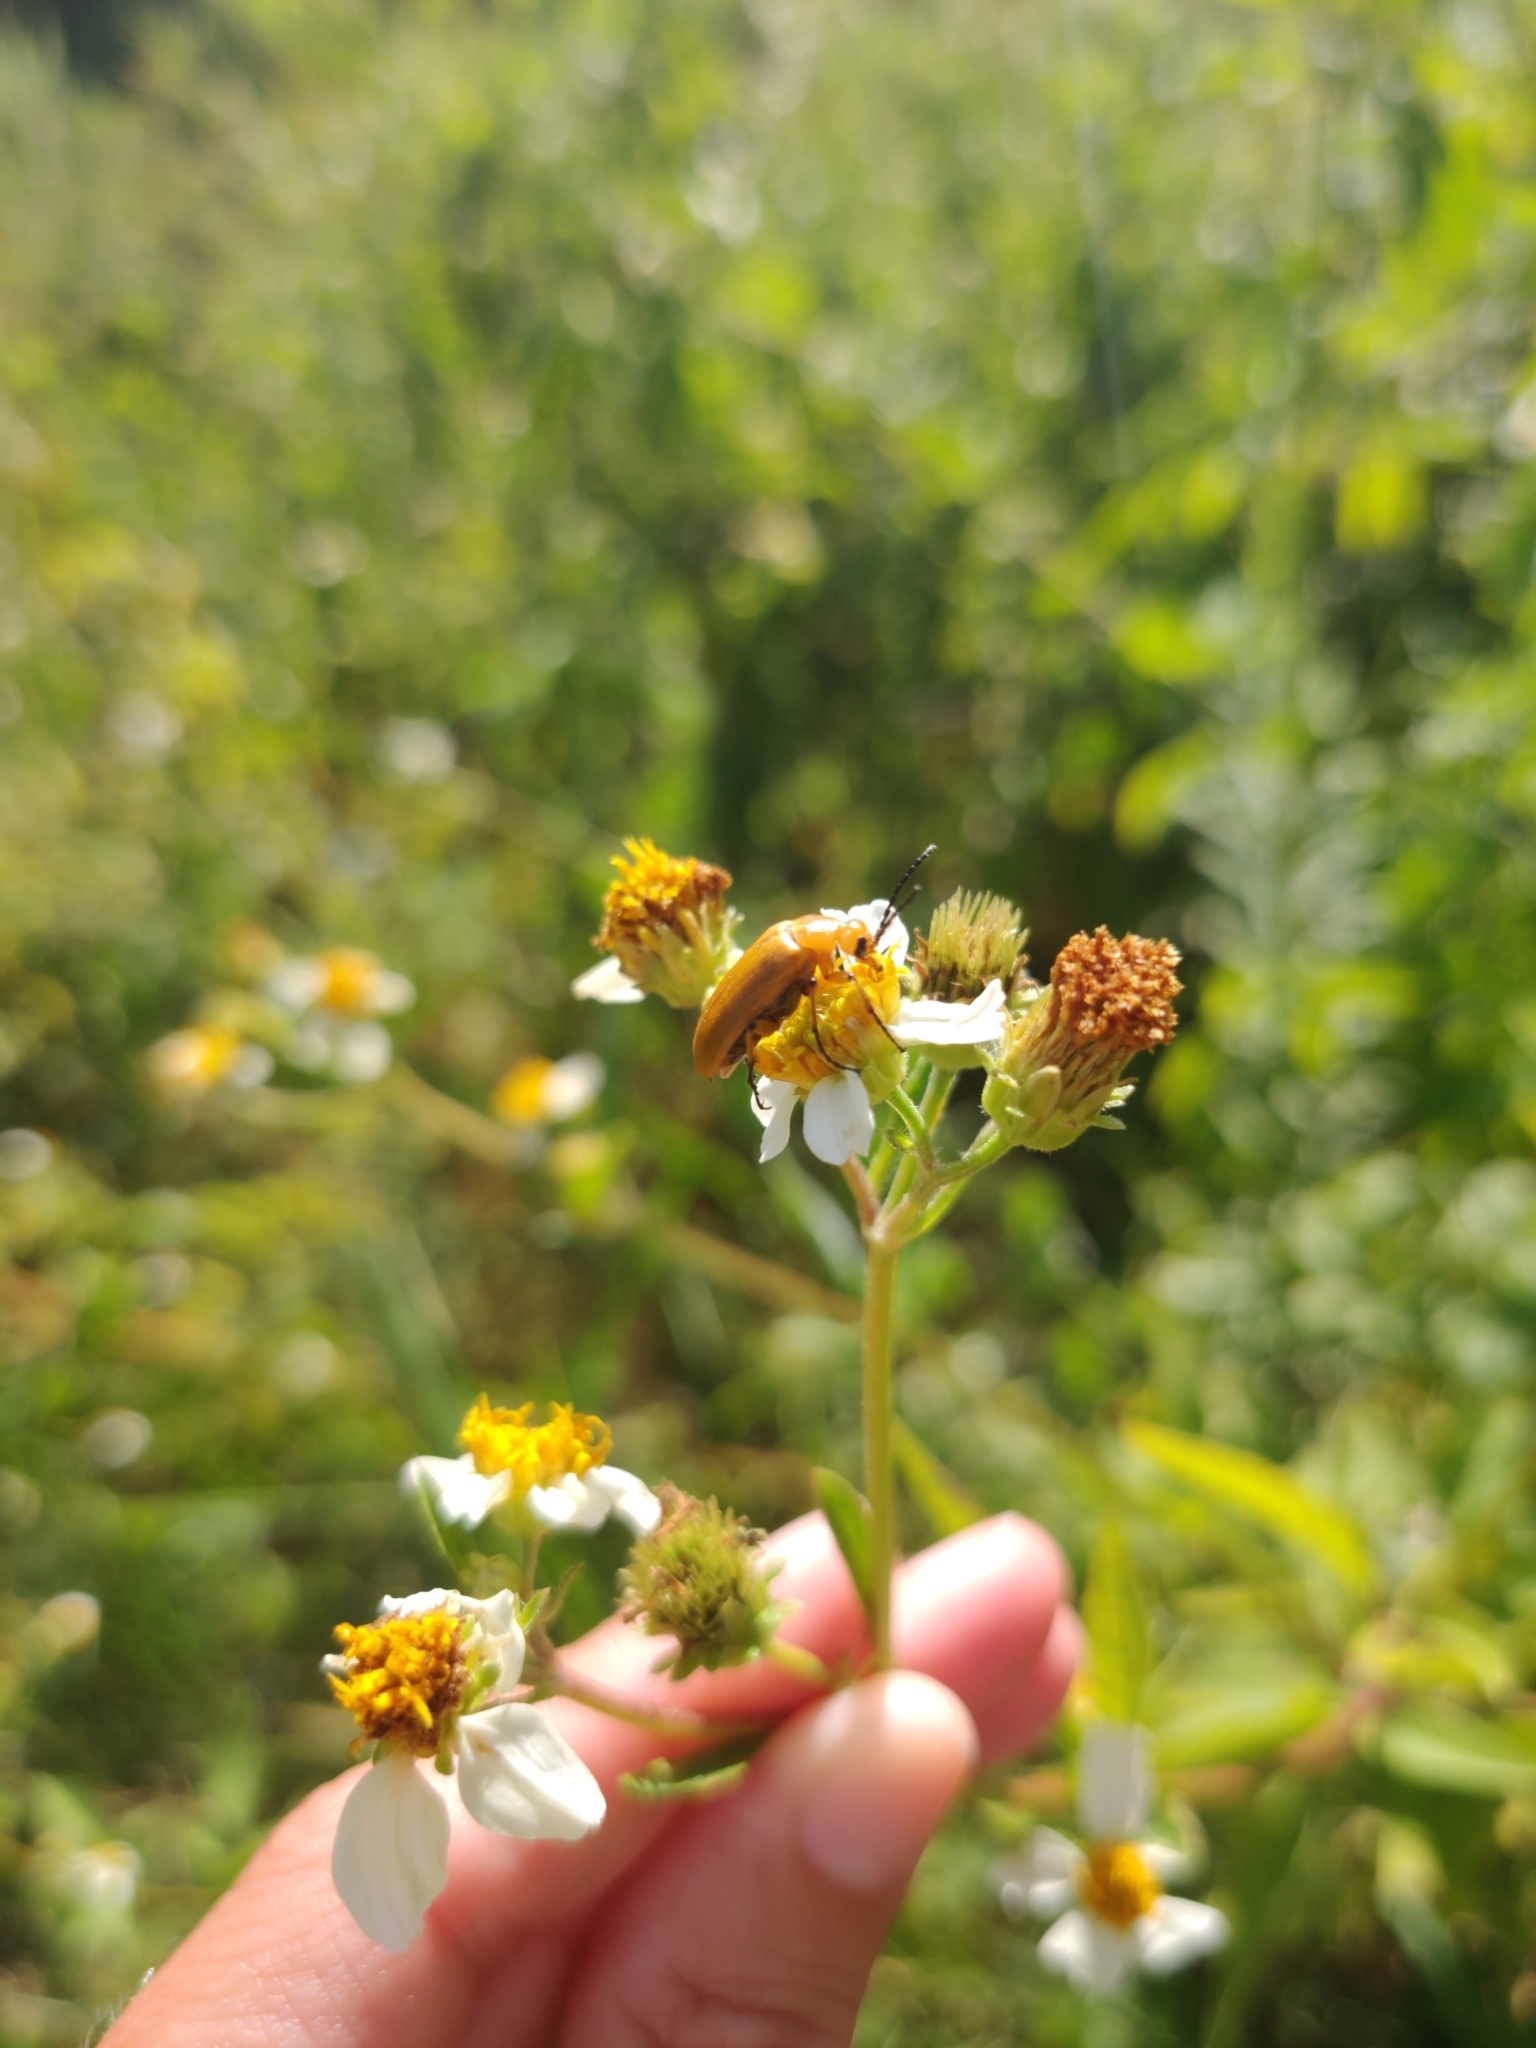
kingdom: Animalia
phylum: Arthropoda
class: Insecta
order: Coleoptera
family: Meloidae
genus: Nemognatha
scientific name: Nemognatha punctulata
